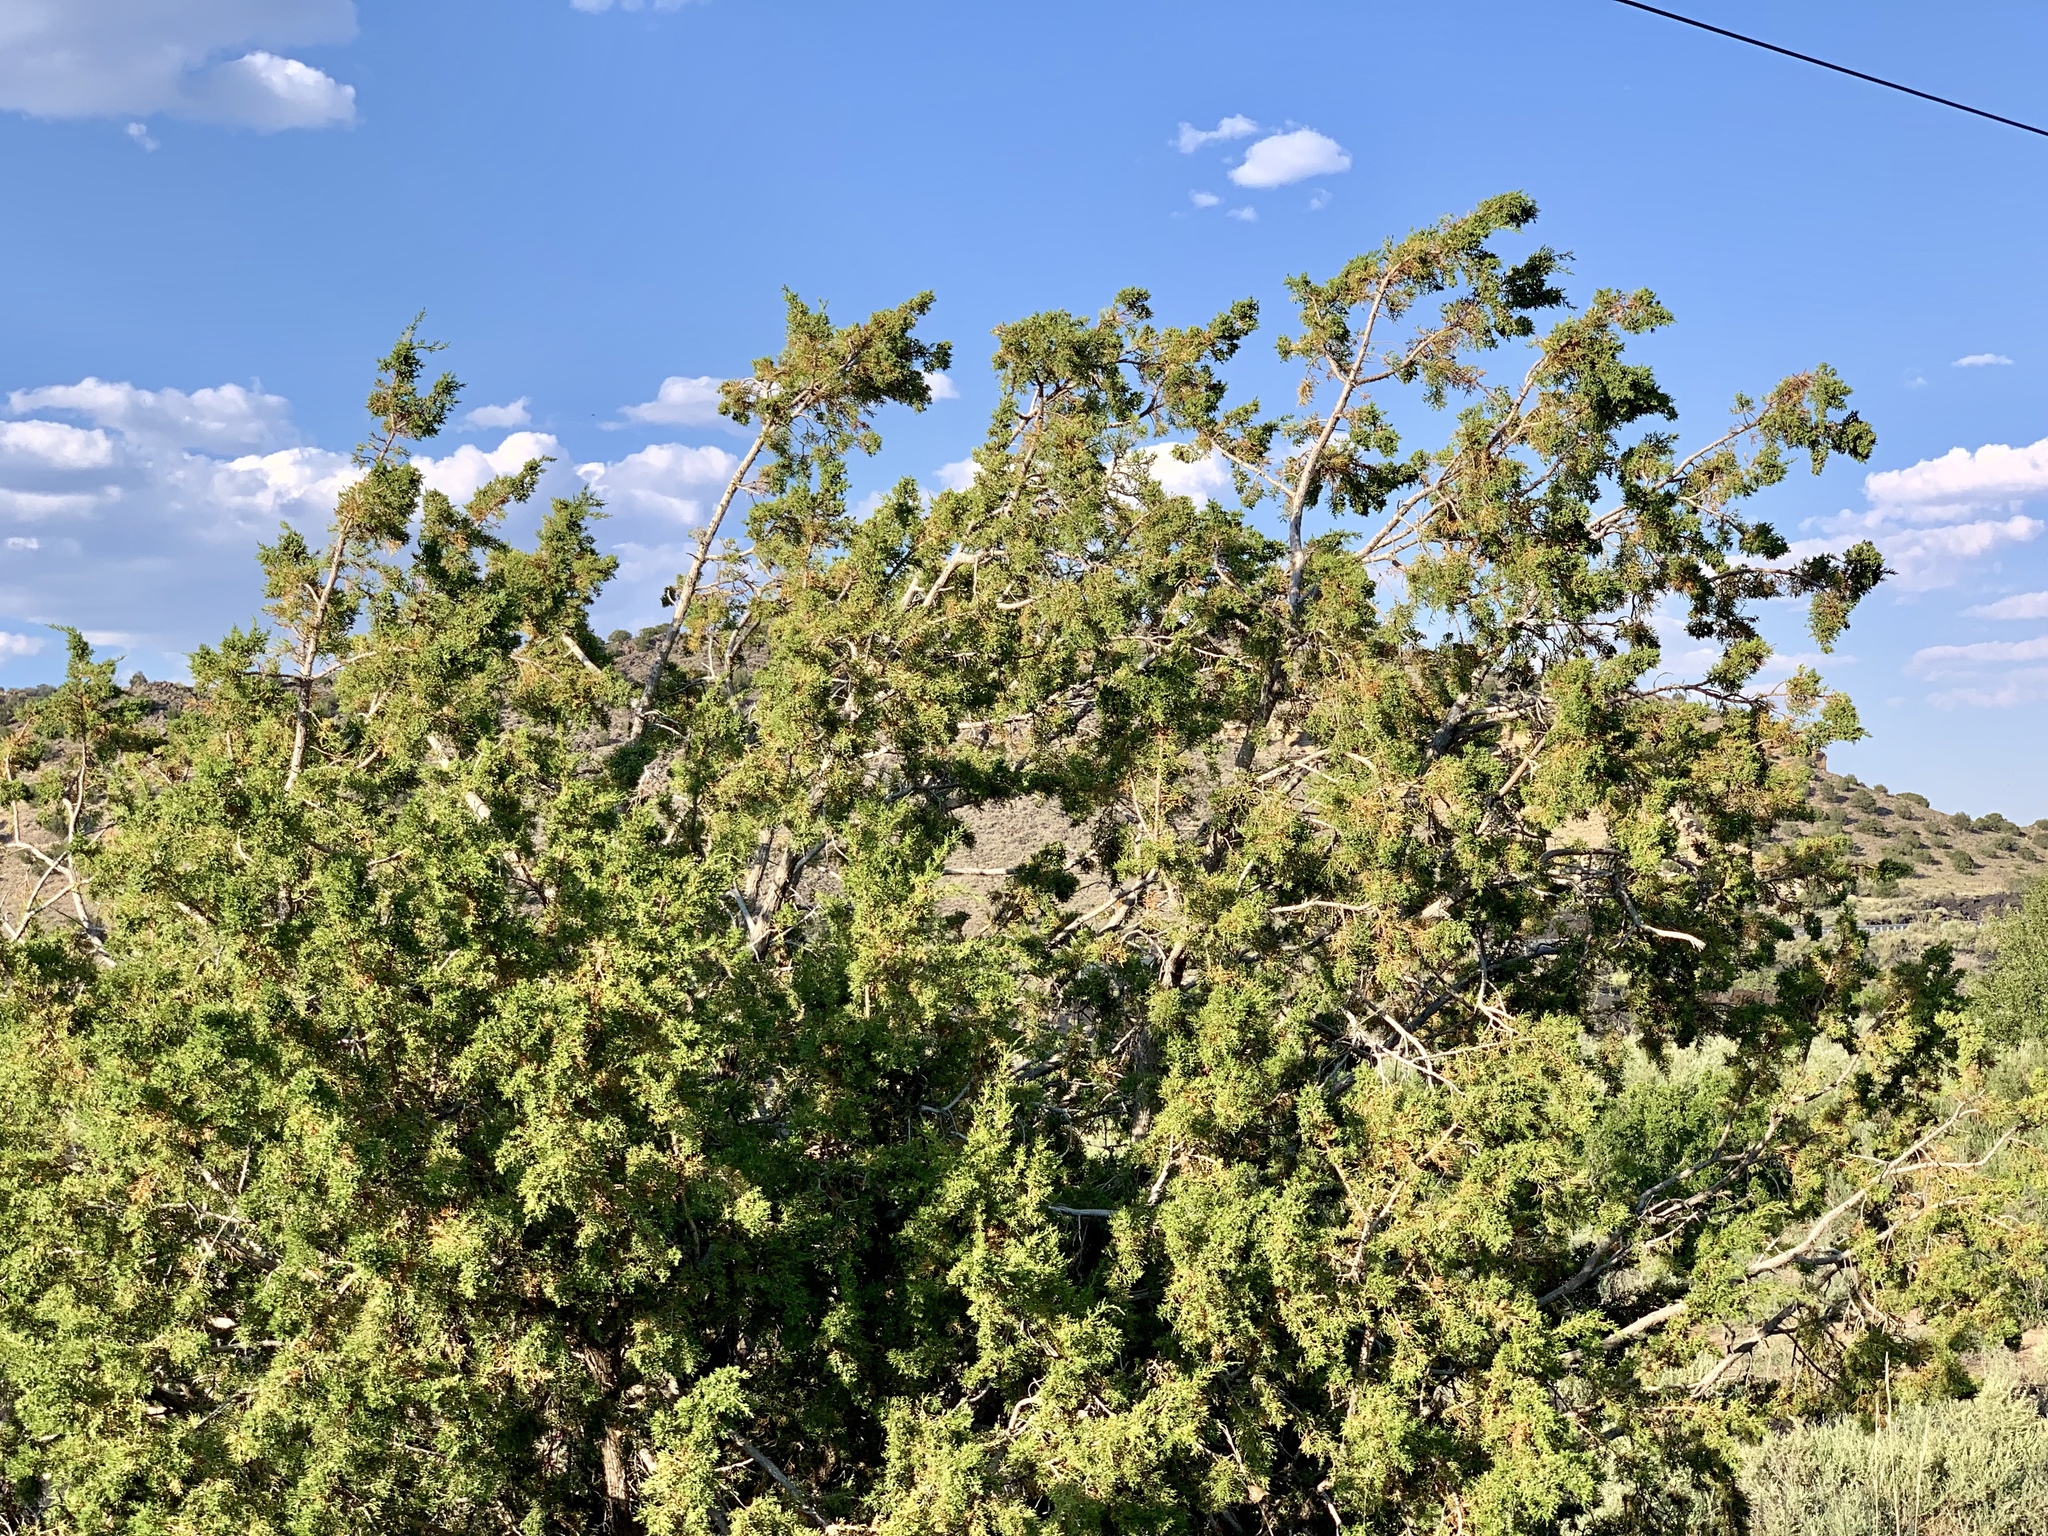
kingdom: Plantae
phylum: Tracheophyta
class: Pinopsida
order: Pinales
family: Cupressaceae
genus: Juniperus
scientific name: Juniperus monosperma
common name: One-seed juniper
